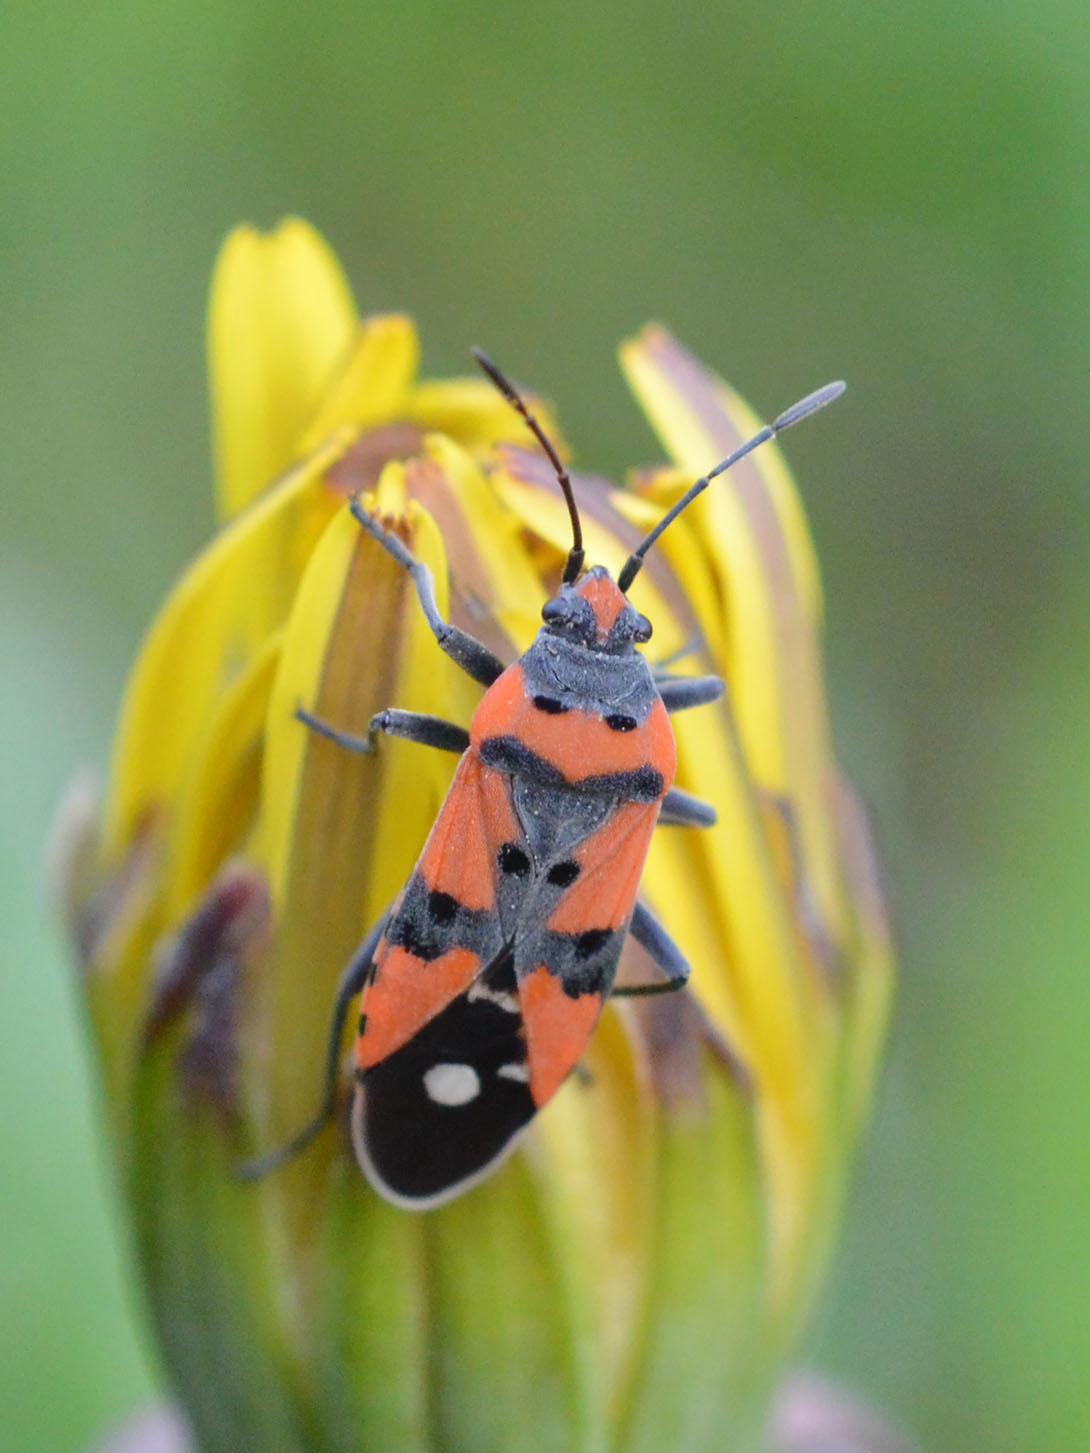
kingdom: Animalia
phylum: Arthropoda
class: Insecta
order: Hemiptera
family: Lygaeidae
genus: Lygaeus
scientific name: Lygaeus equestris
